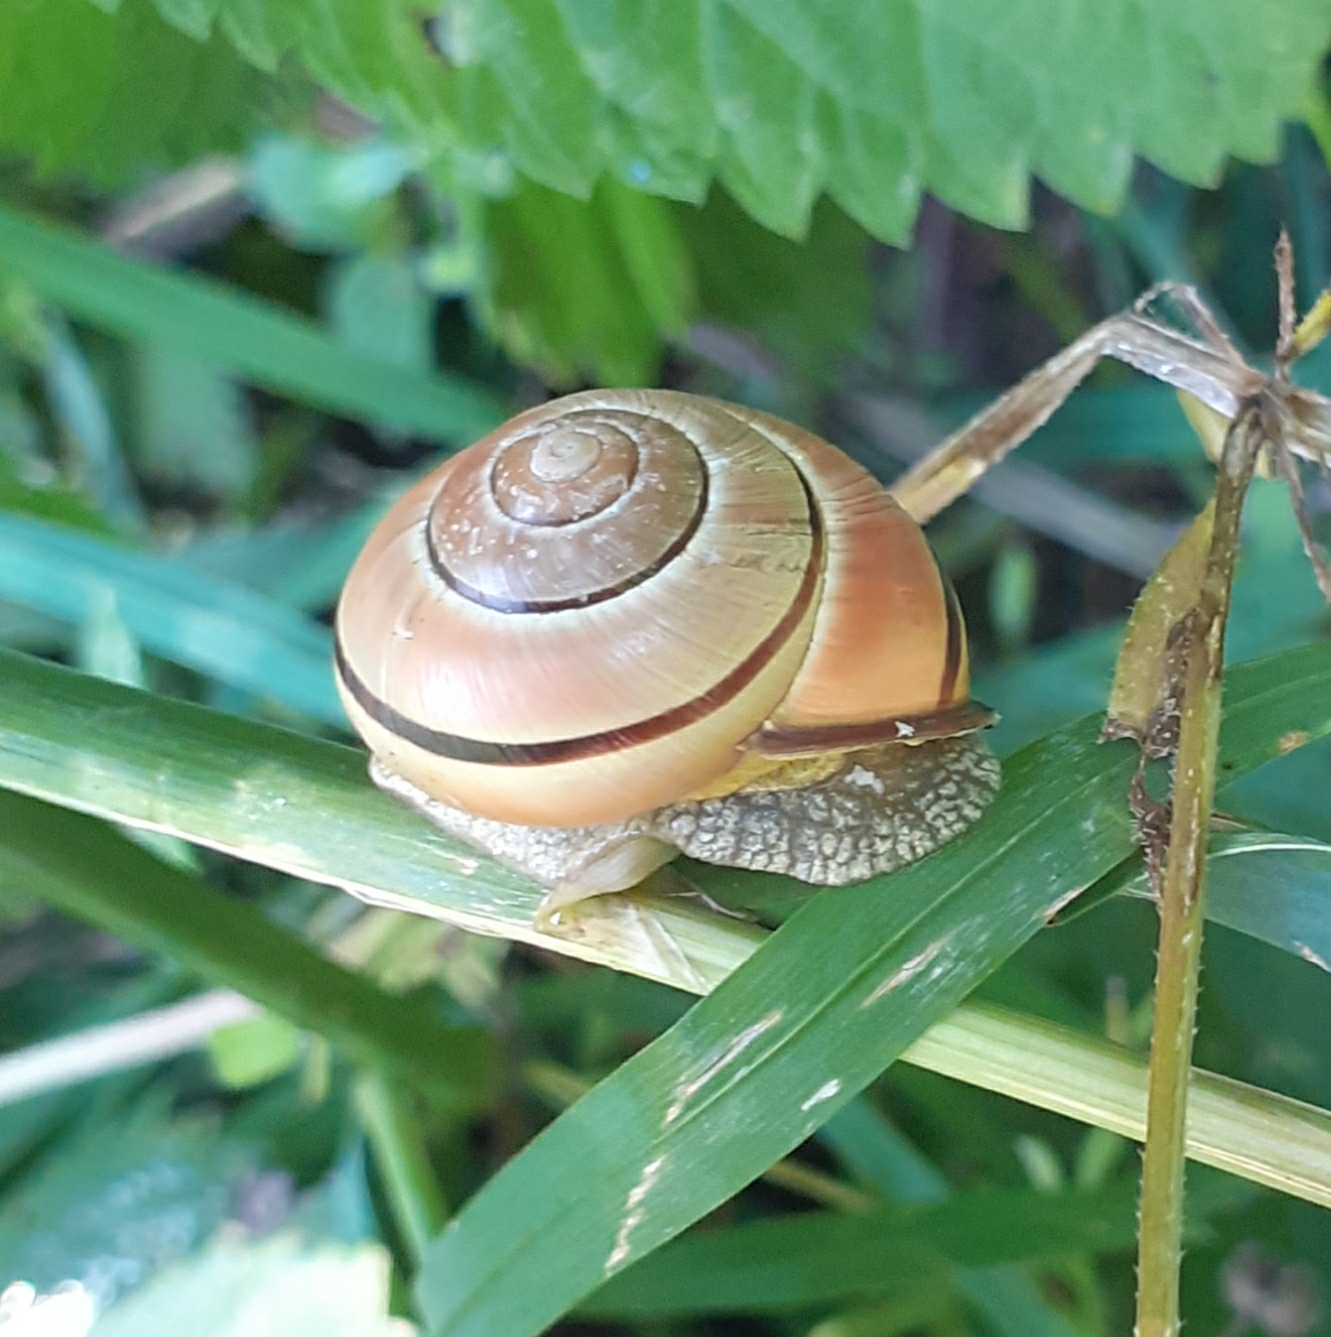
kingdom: Animalia
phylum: Mollusca
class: Gastropoda
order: Stylommatophora
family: Helicidae
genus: Cepaea
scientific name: Cepaea nemoralis
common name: Grovesnail
